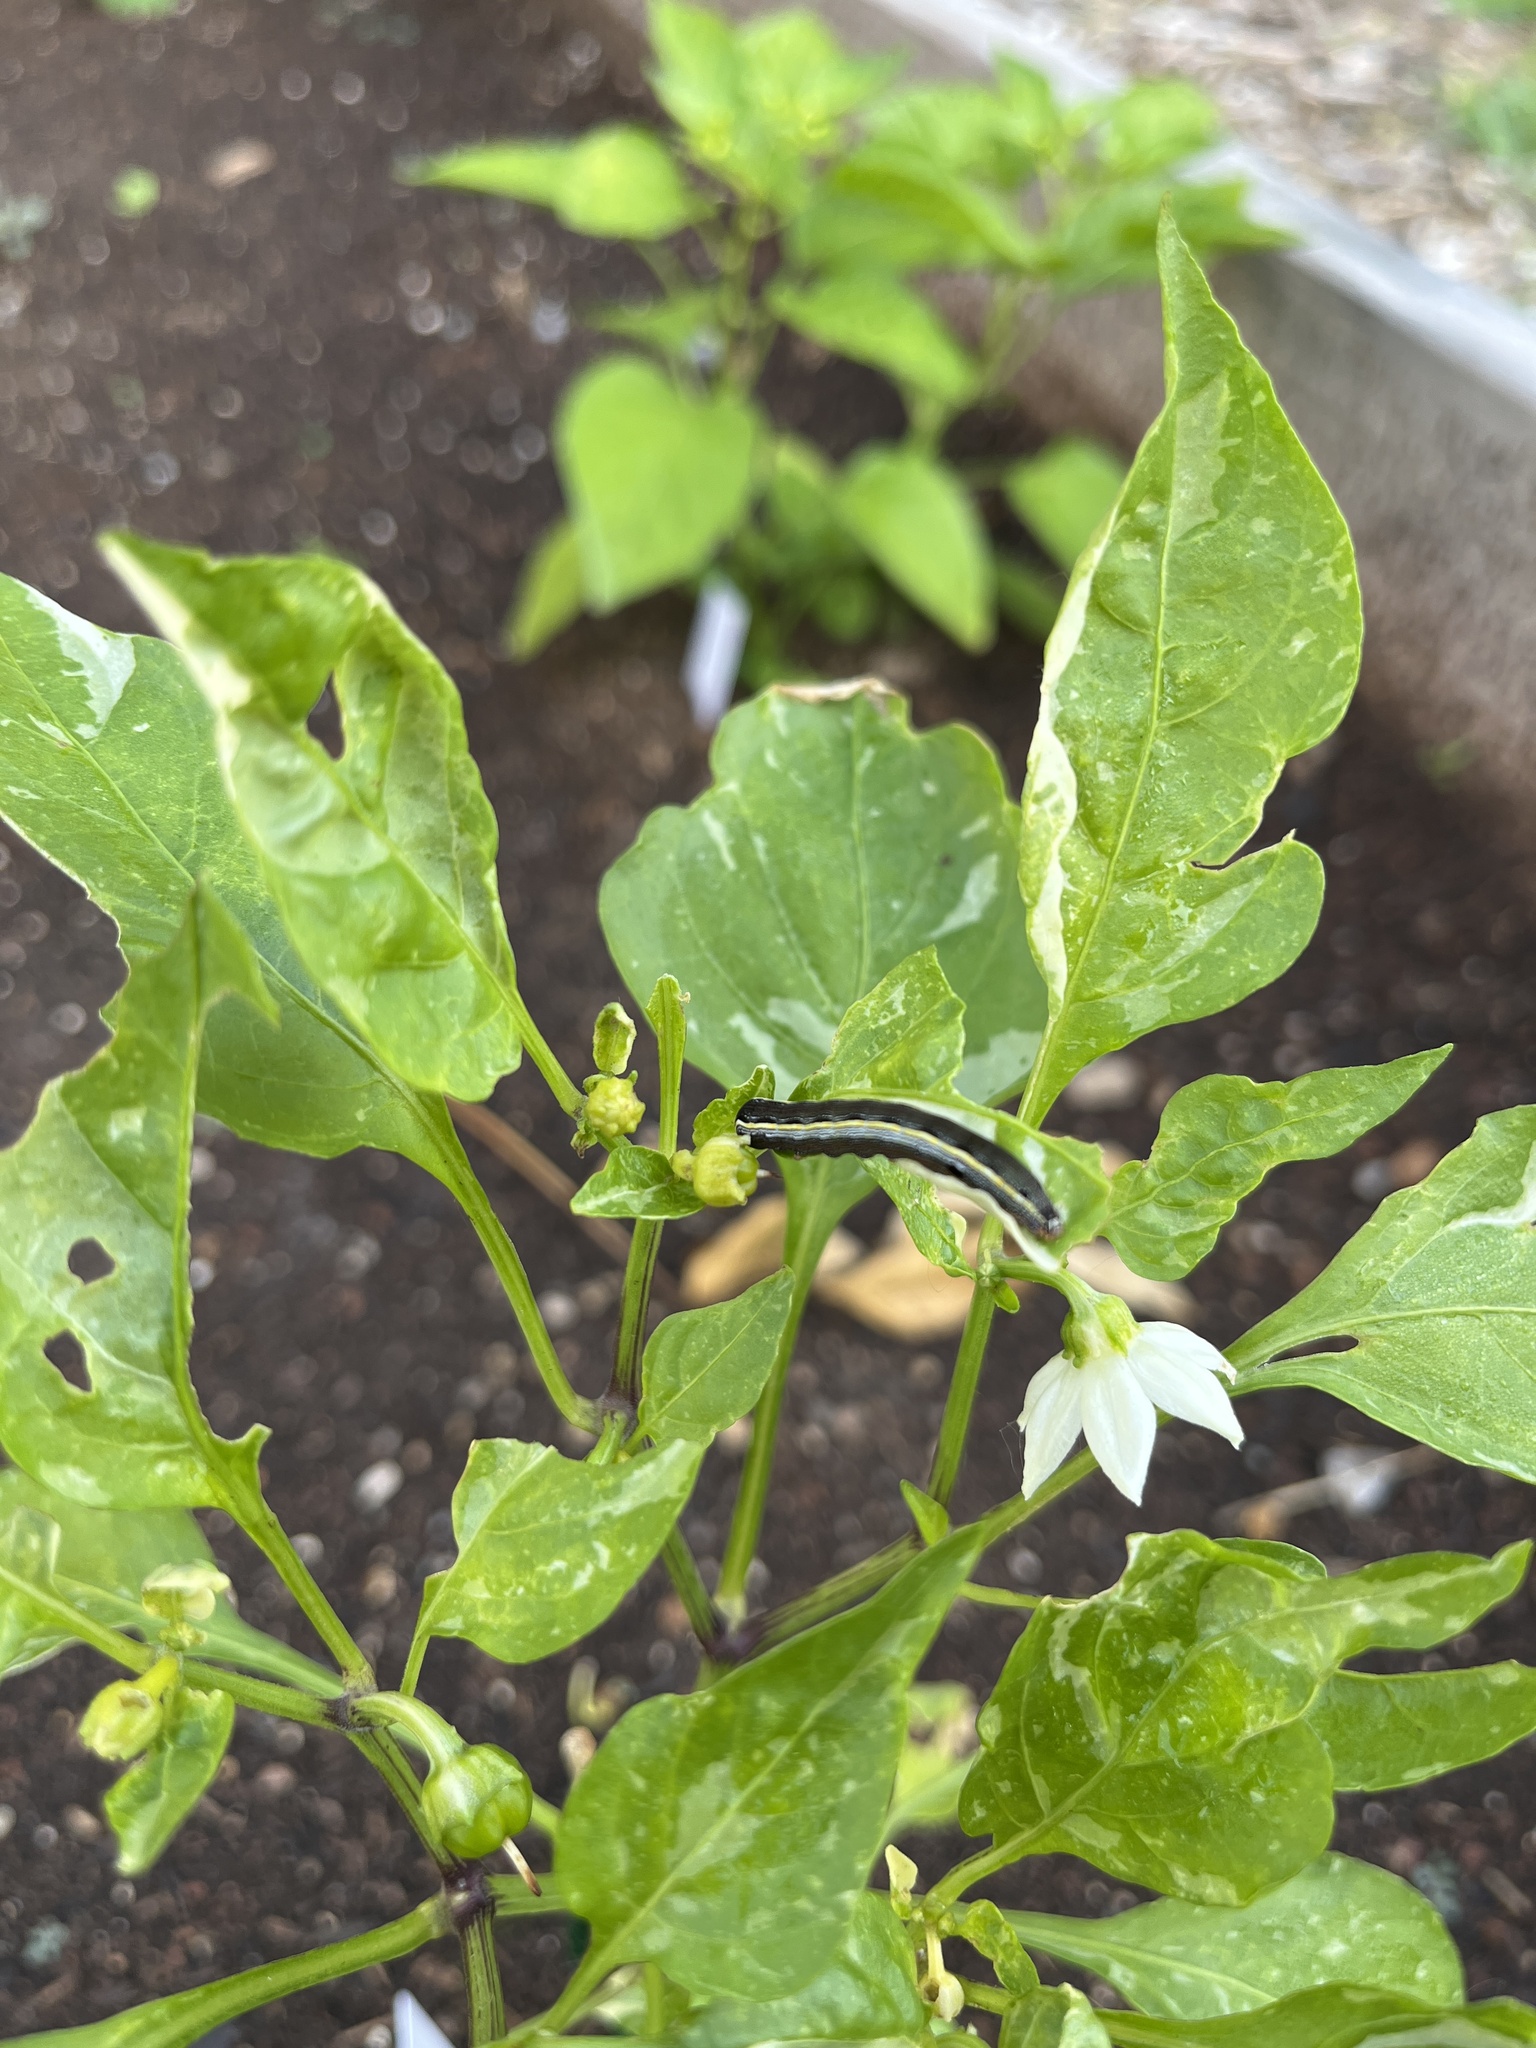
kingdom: Animalia
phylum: Arthropoda
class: Insecta
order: Lepidoptera
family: Noctuidae
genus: Spodoptera
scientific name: Spodoptera ornithogalli
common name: Yellow-striped armyworm
